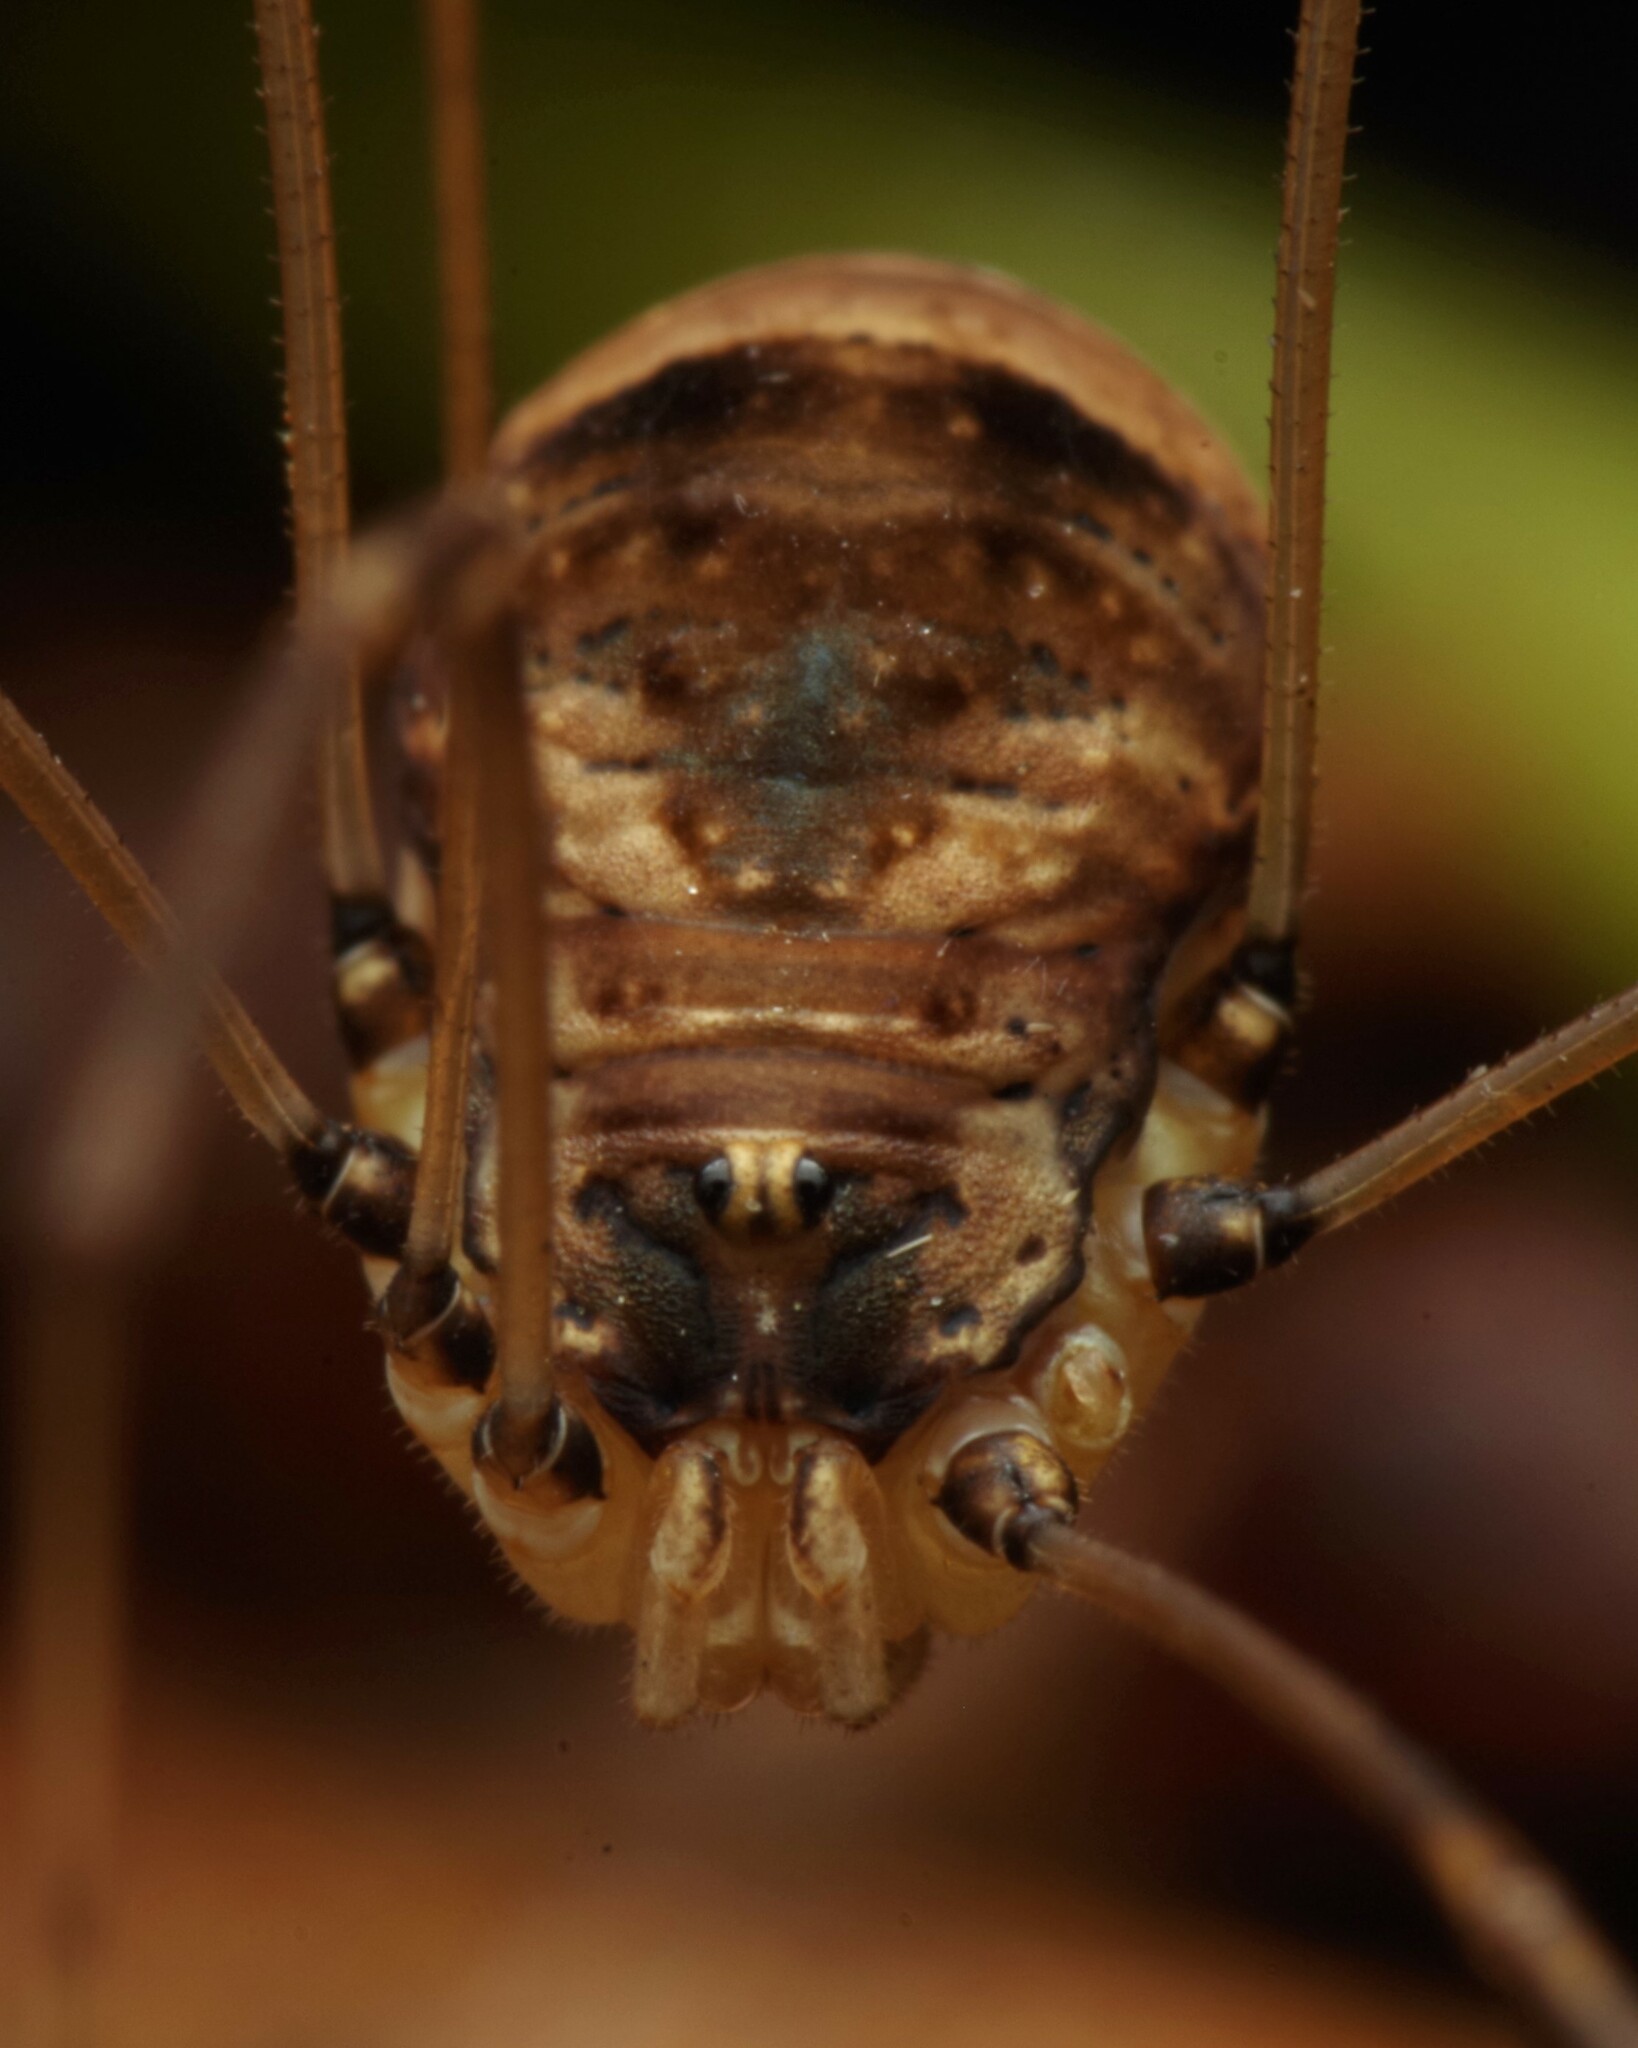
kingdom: Animalia
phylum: Arthropoda
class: Arachnida
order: Opiliones
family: Sclerosomatidae
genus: Leiobunum
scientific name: Leiobunum blackwalli
